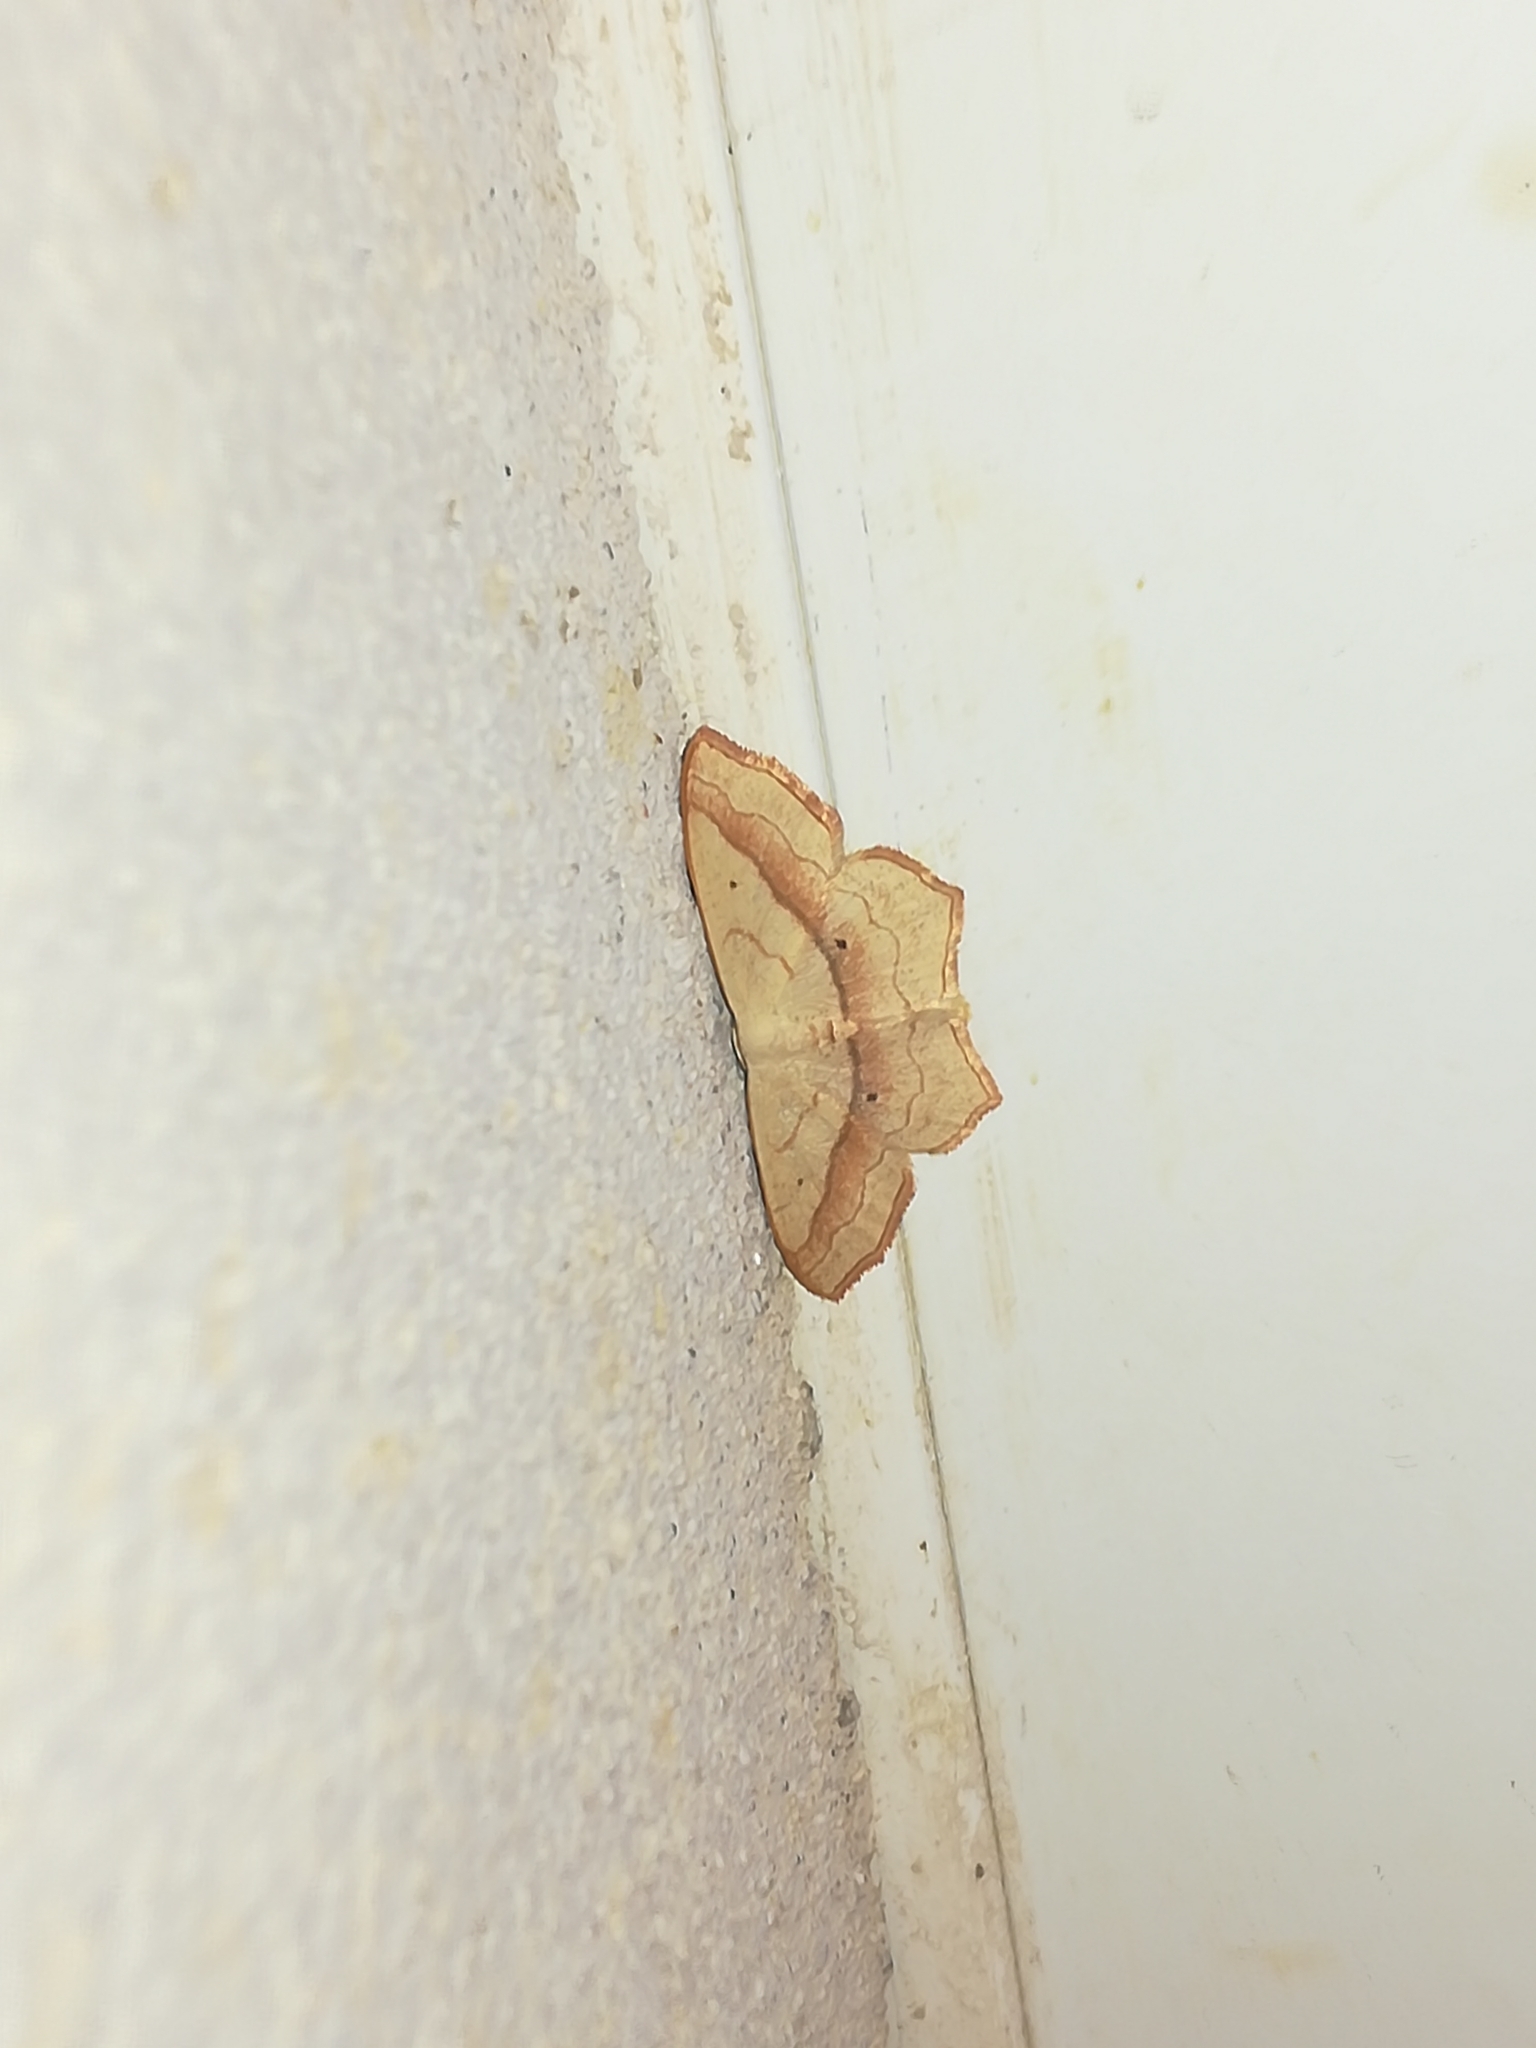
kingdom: Animalia
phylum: Arthropoda
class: Insecta
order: Lepidoptera
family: Geometridae
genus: Scopula
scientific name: Scopula imitaria
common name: Small blood-vein
